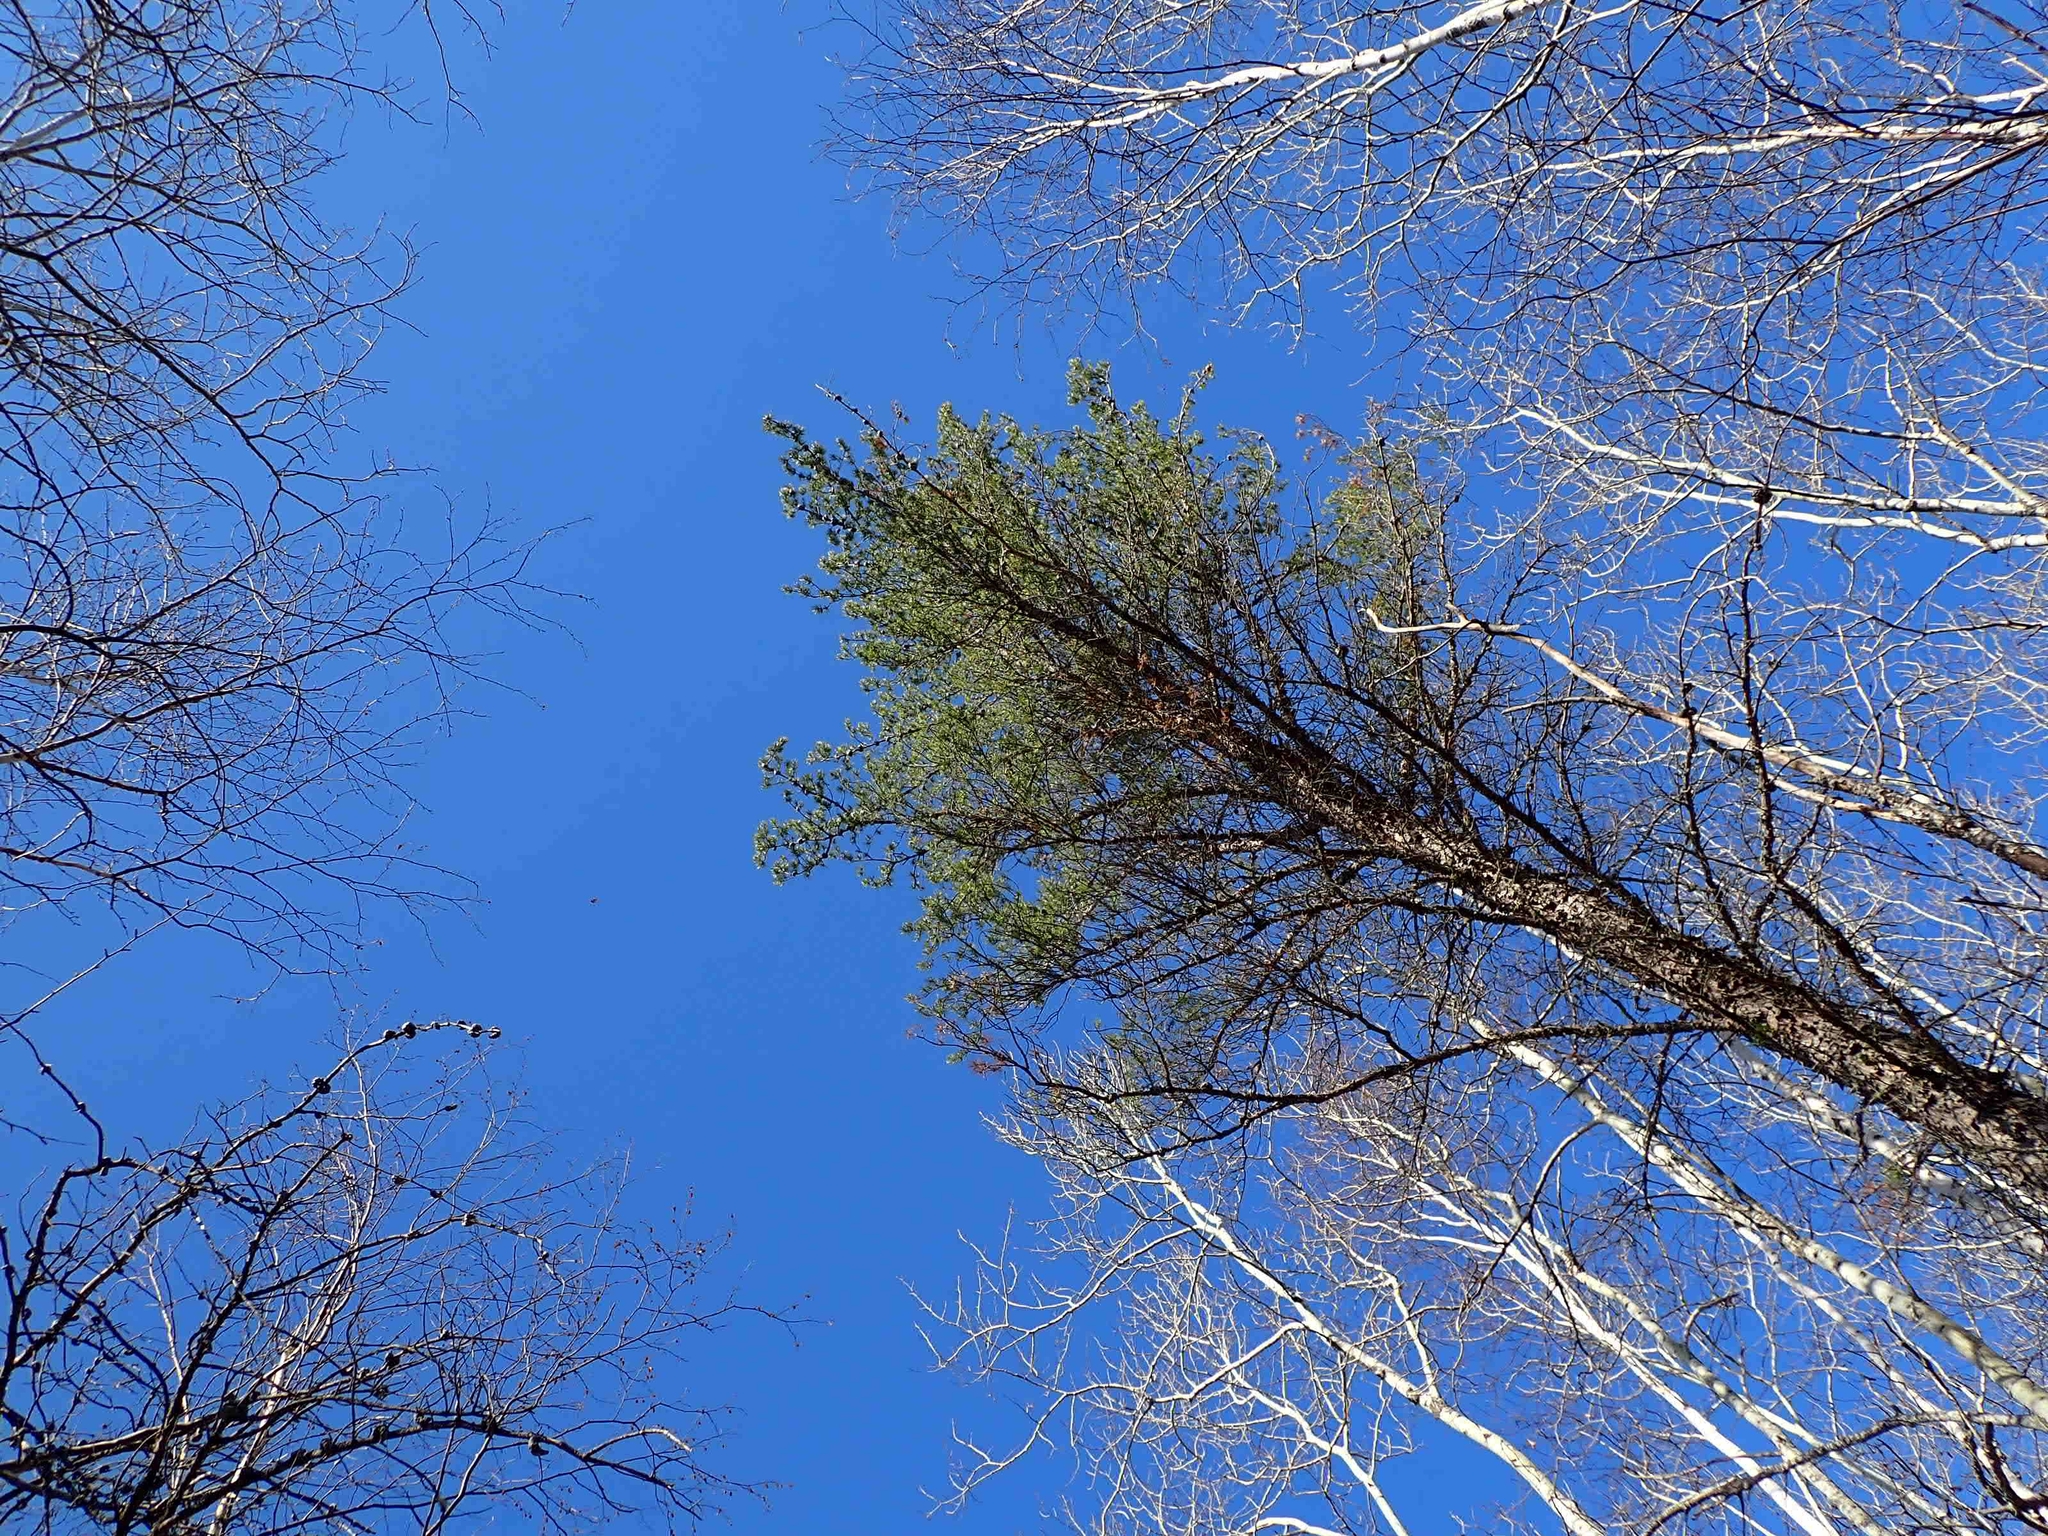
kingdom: Plantae
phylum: Tracheophyta
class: Pinopsida
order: Pinales
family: Pinaceae
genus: Pinus
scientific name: Pinus banksiana
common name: Jack pine
